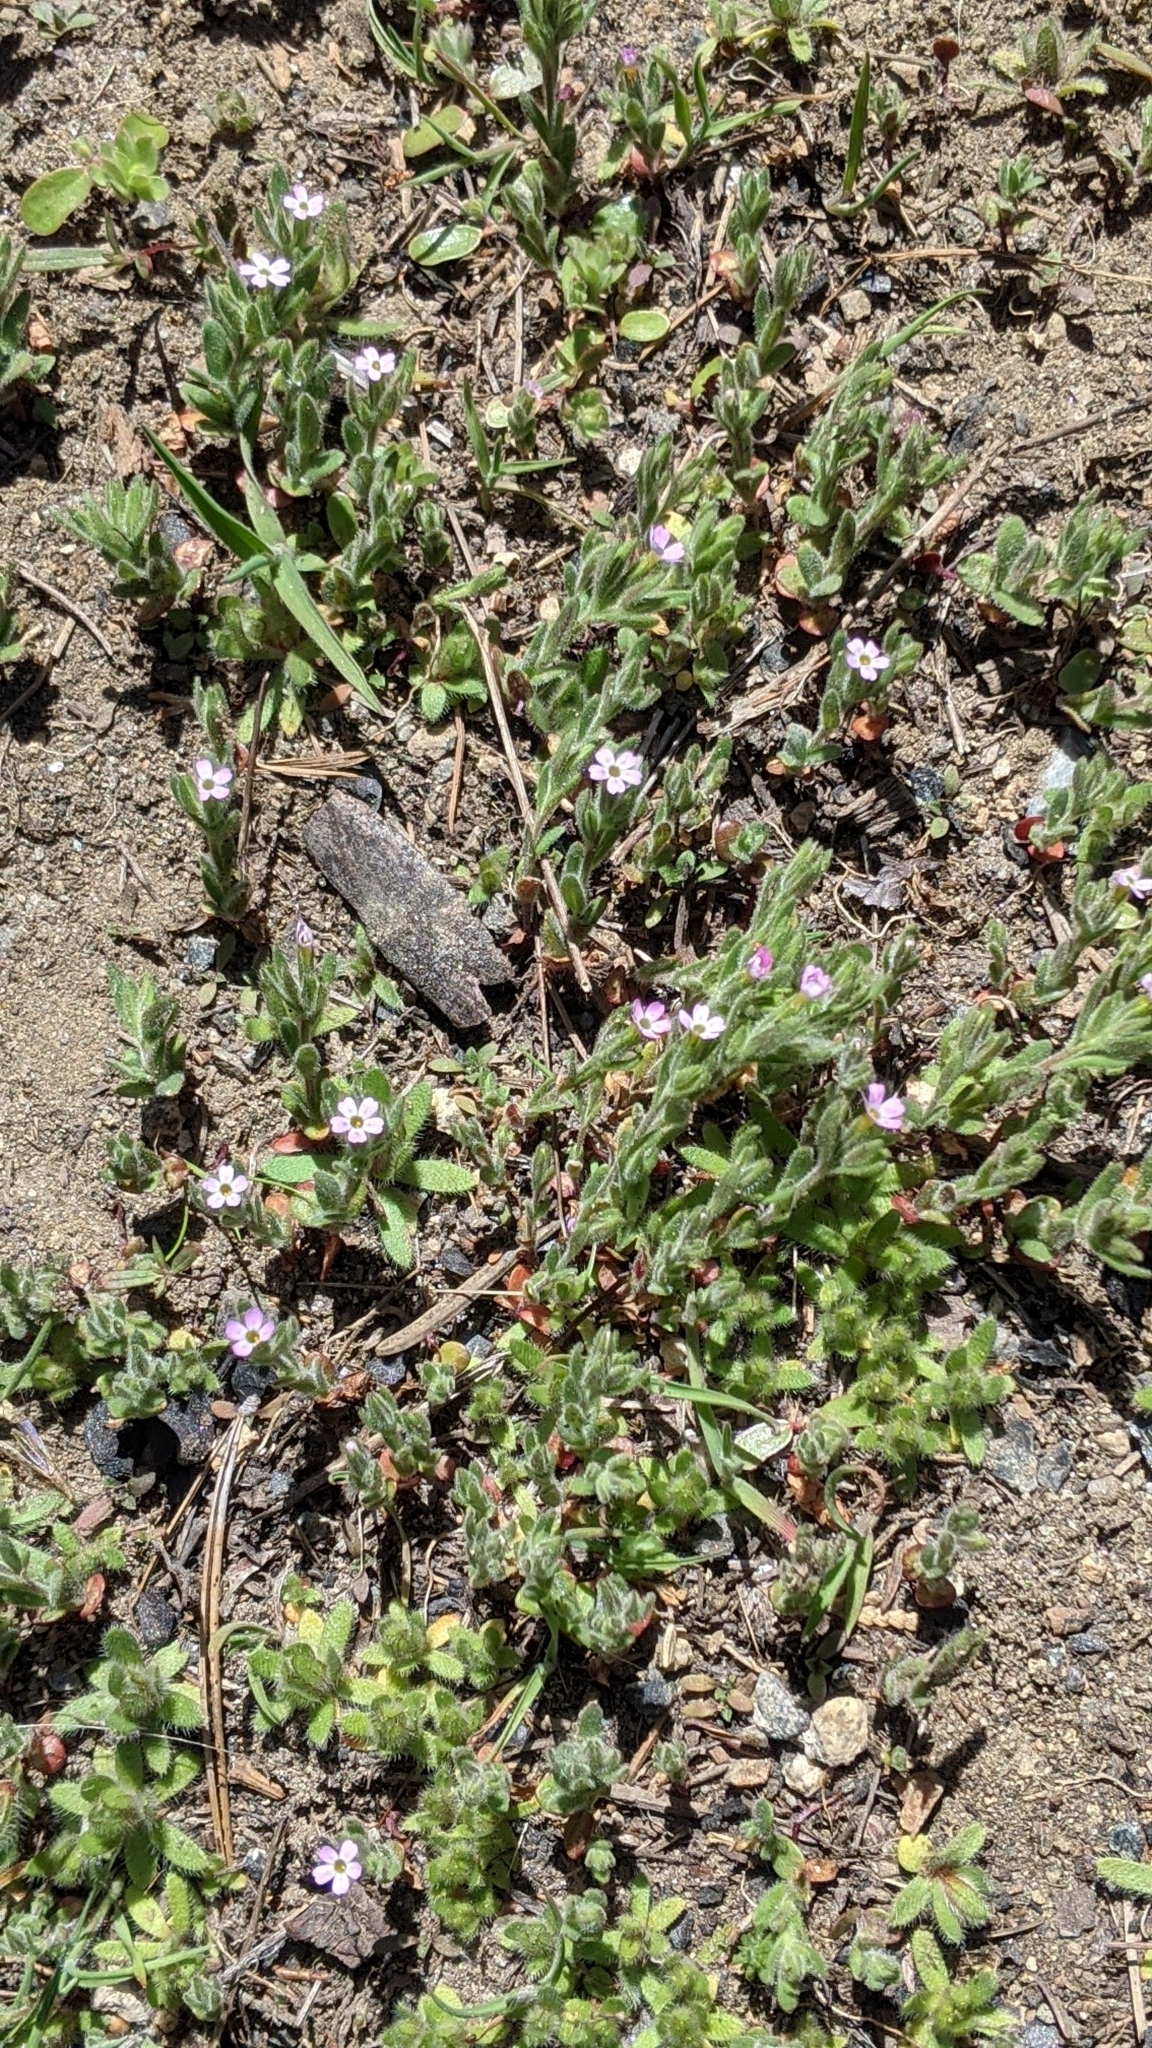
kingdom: Plantae
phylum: Tracheophyta
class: Magnoliopsida
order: Ericales
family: Polemoniaceae
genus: Phlox
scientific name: Phlox gracilis
